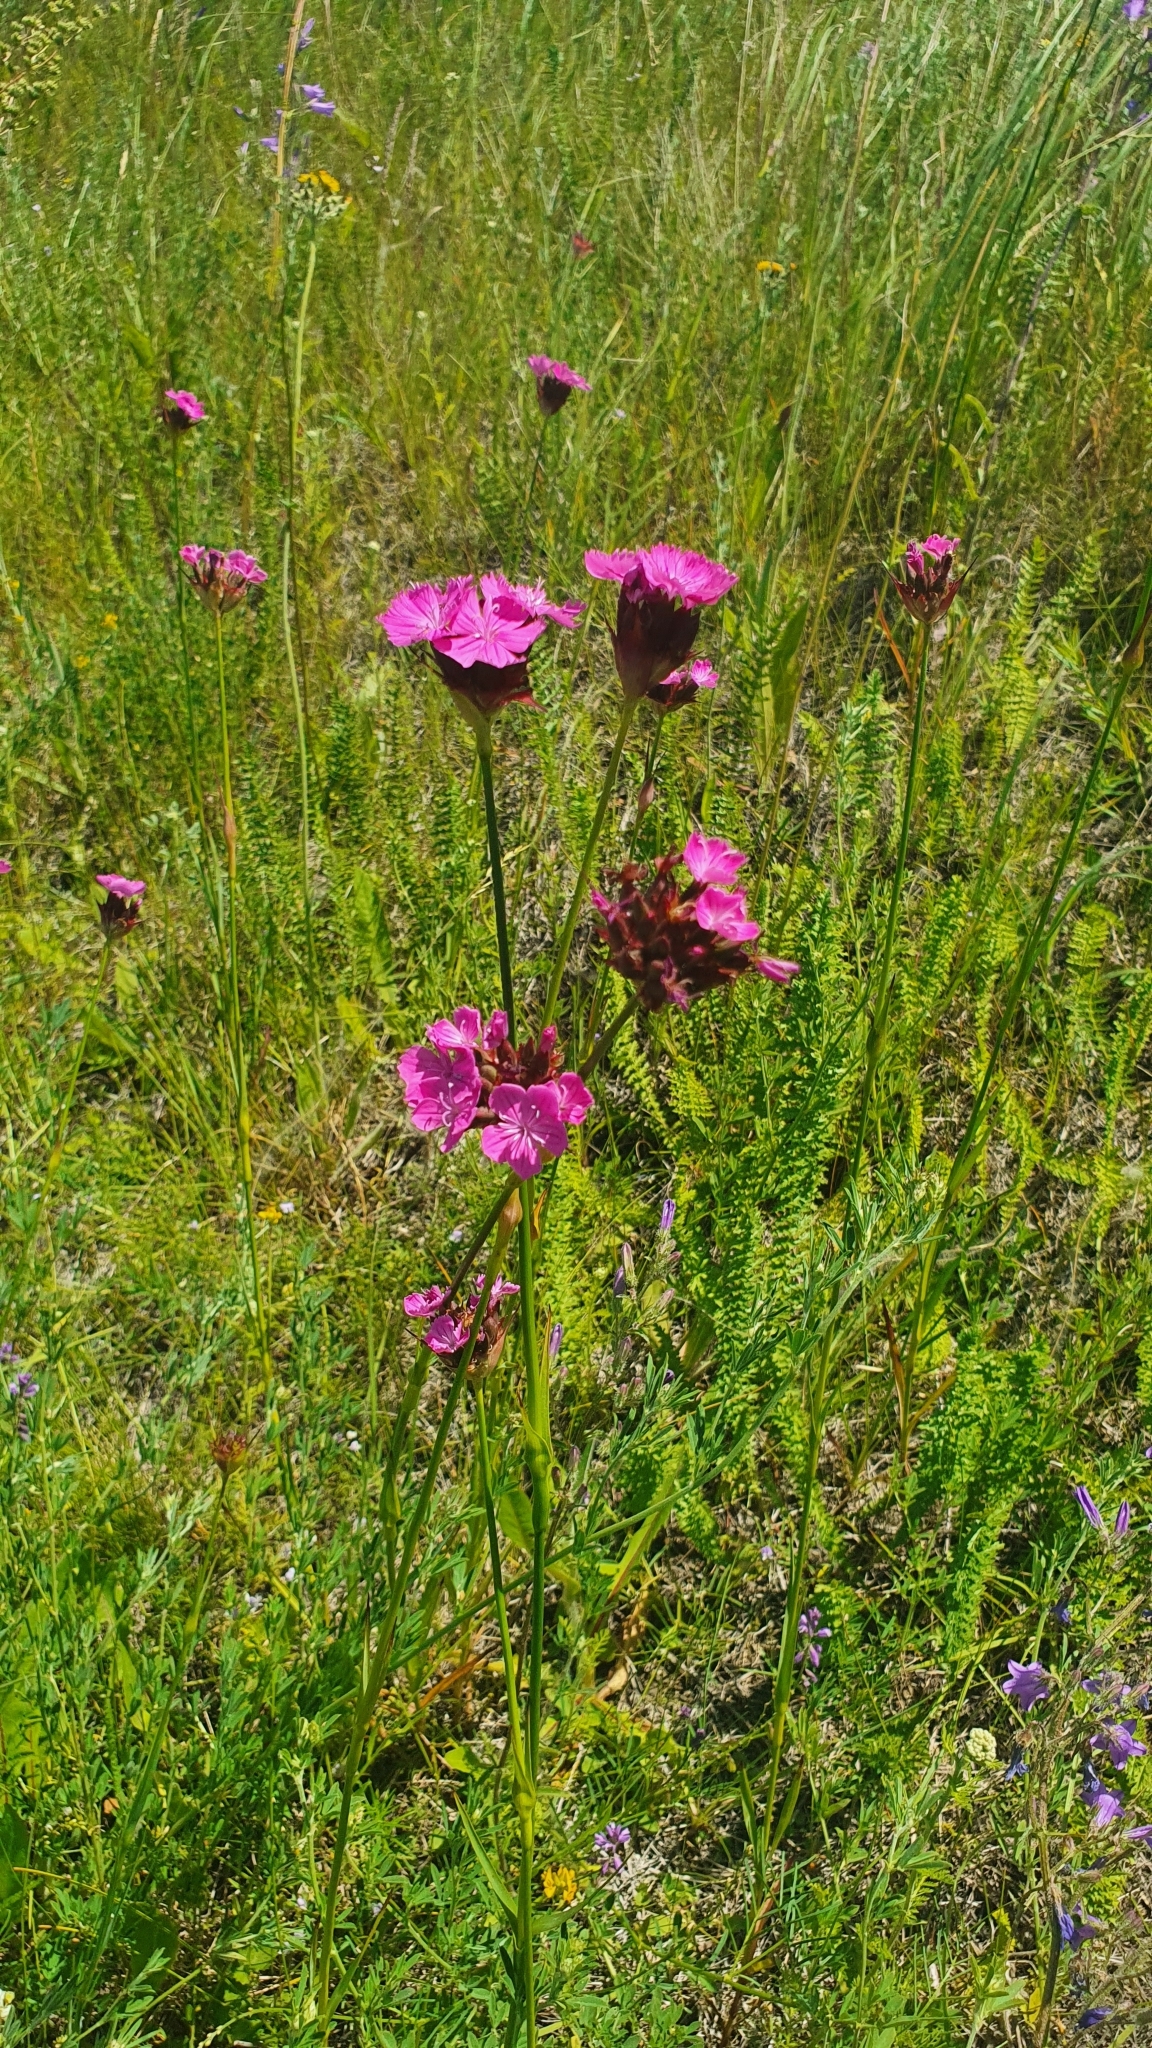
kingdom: Plantae
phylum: Tracheophyta
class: Magnoliopsida
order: Caryophyllales
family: Caryophyllaceae
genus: Dianthus
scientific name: Dianthus capitatus
